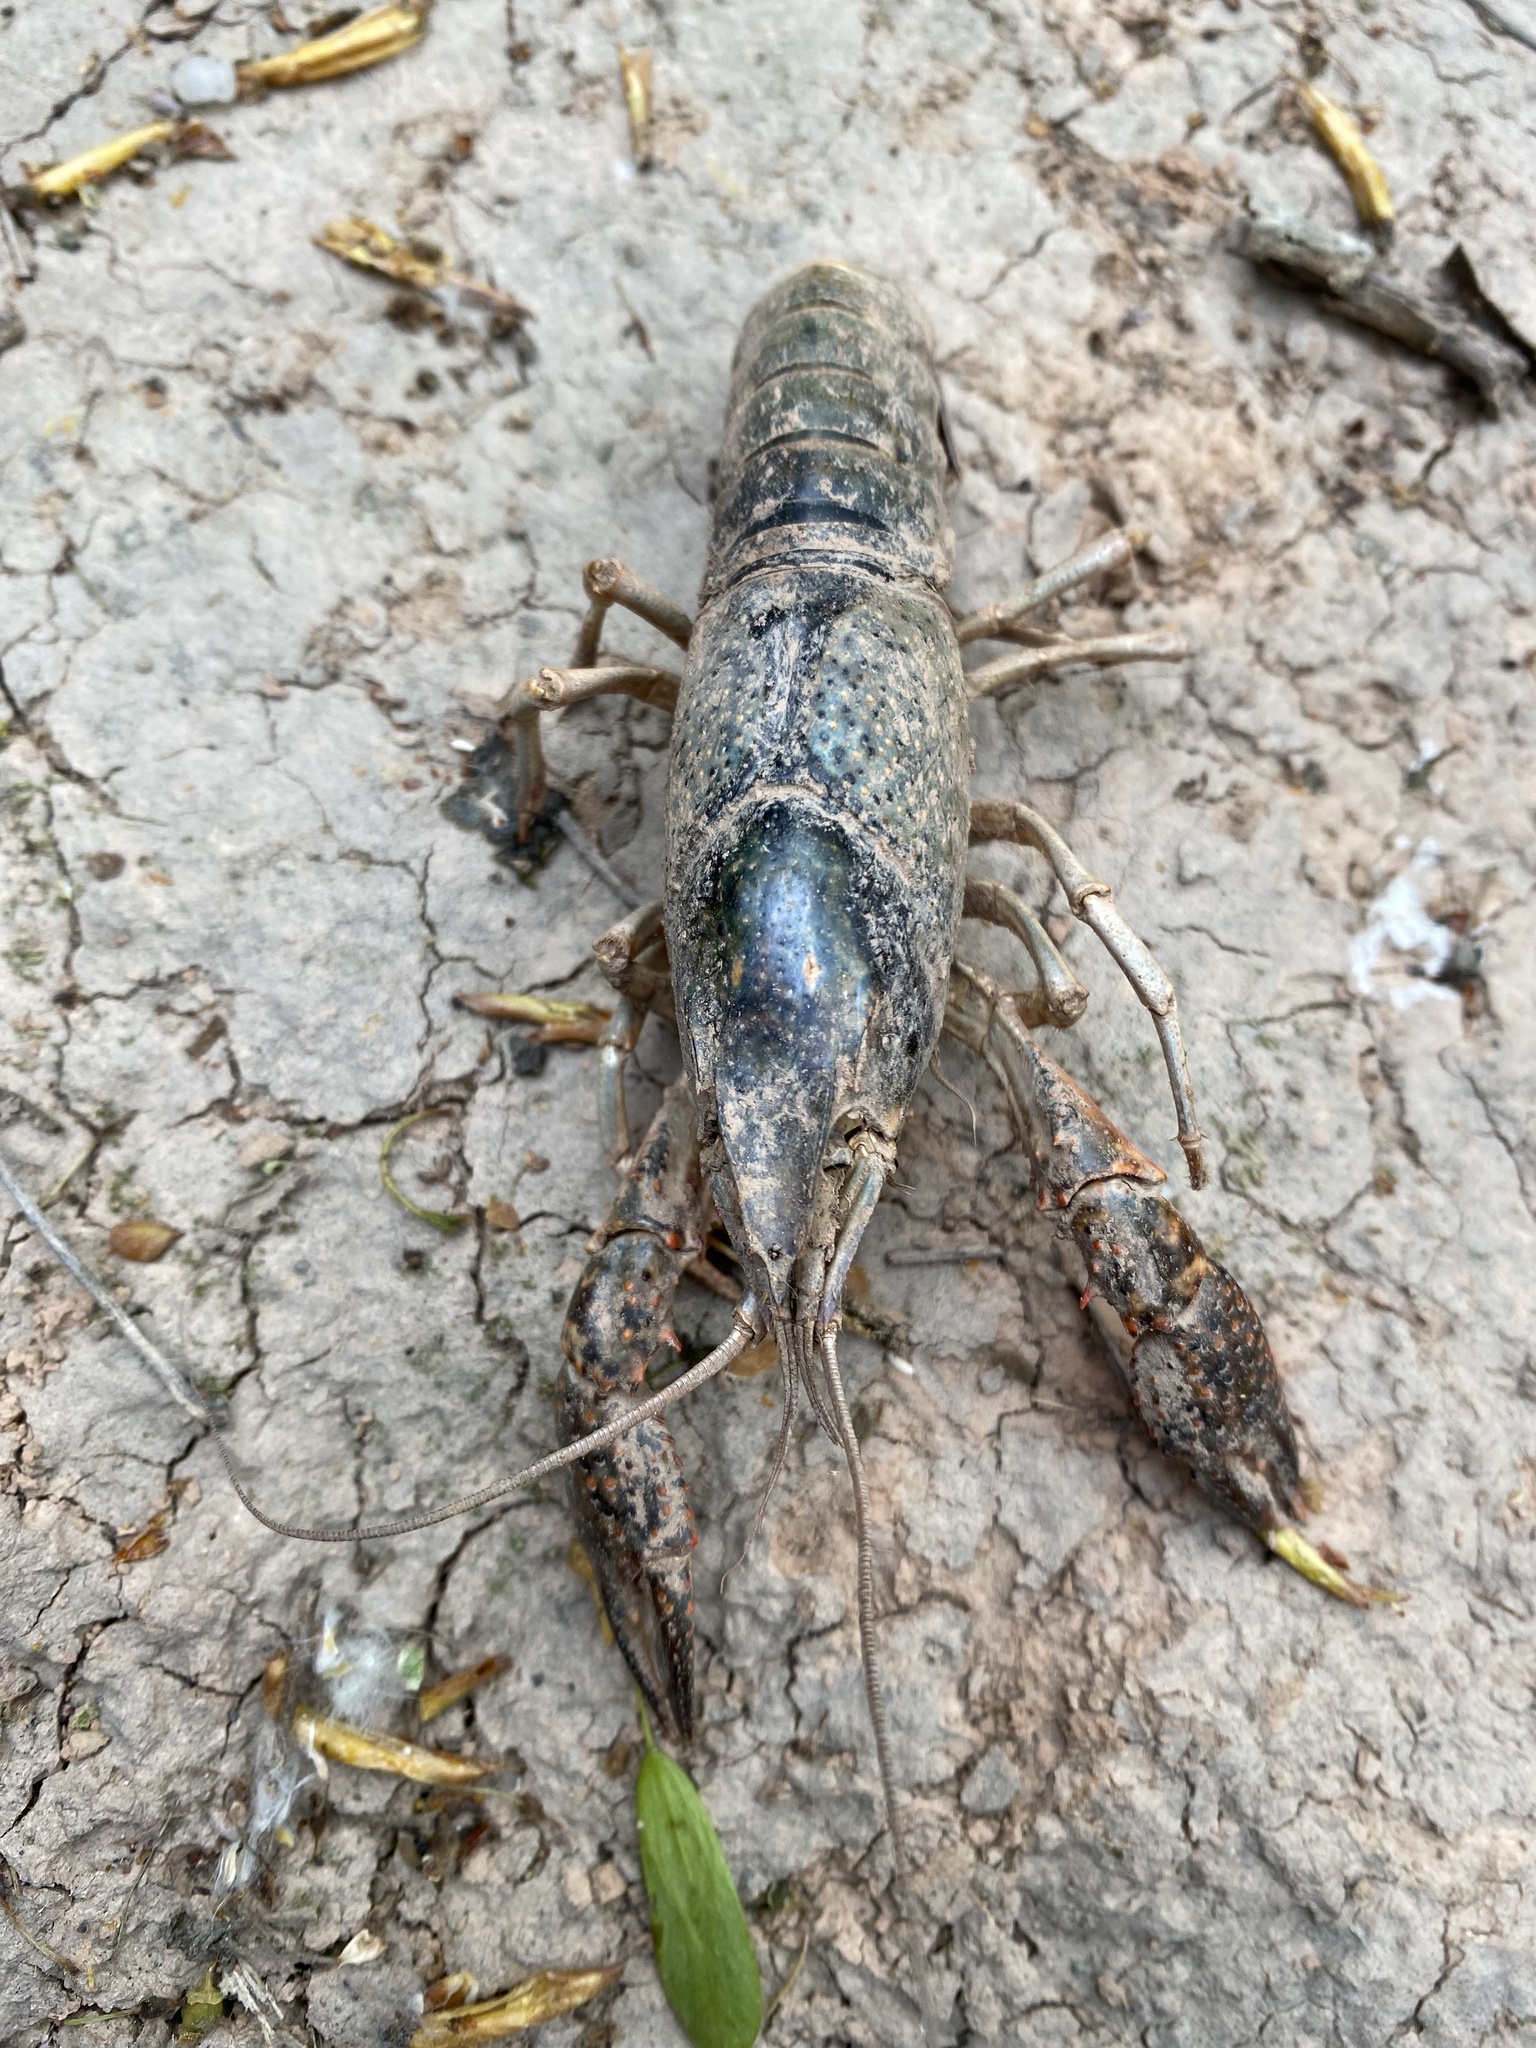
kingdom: Animalia
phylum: Arthropoda
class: Malacostraca
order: Decapoda
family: Cambaridae
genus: Procambarus
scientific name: Procambarus clarkii
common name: Red swamp crayfish
